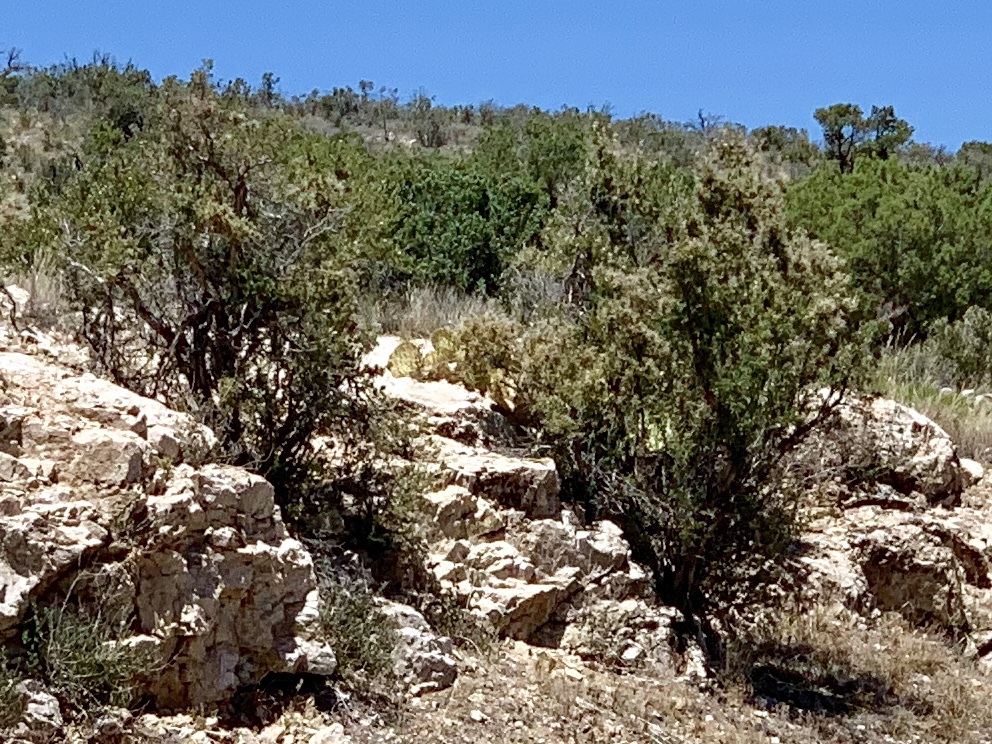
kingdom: Plantae
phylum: Tracheophyta
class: Magnoliopsida
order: Rosales
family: Rosaceae
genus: Purshia
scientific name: Purshia stansburiana
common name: Stansbury's cliffrose
